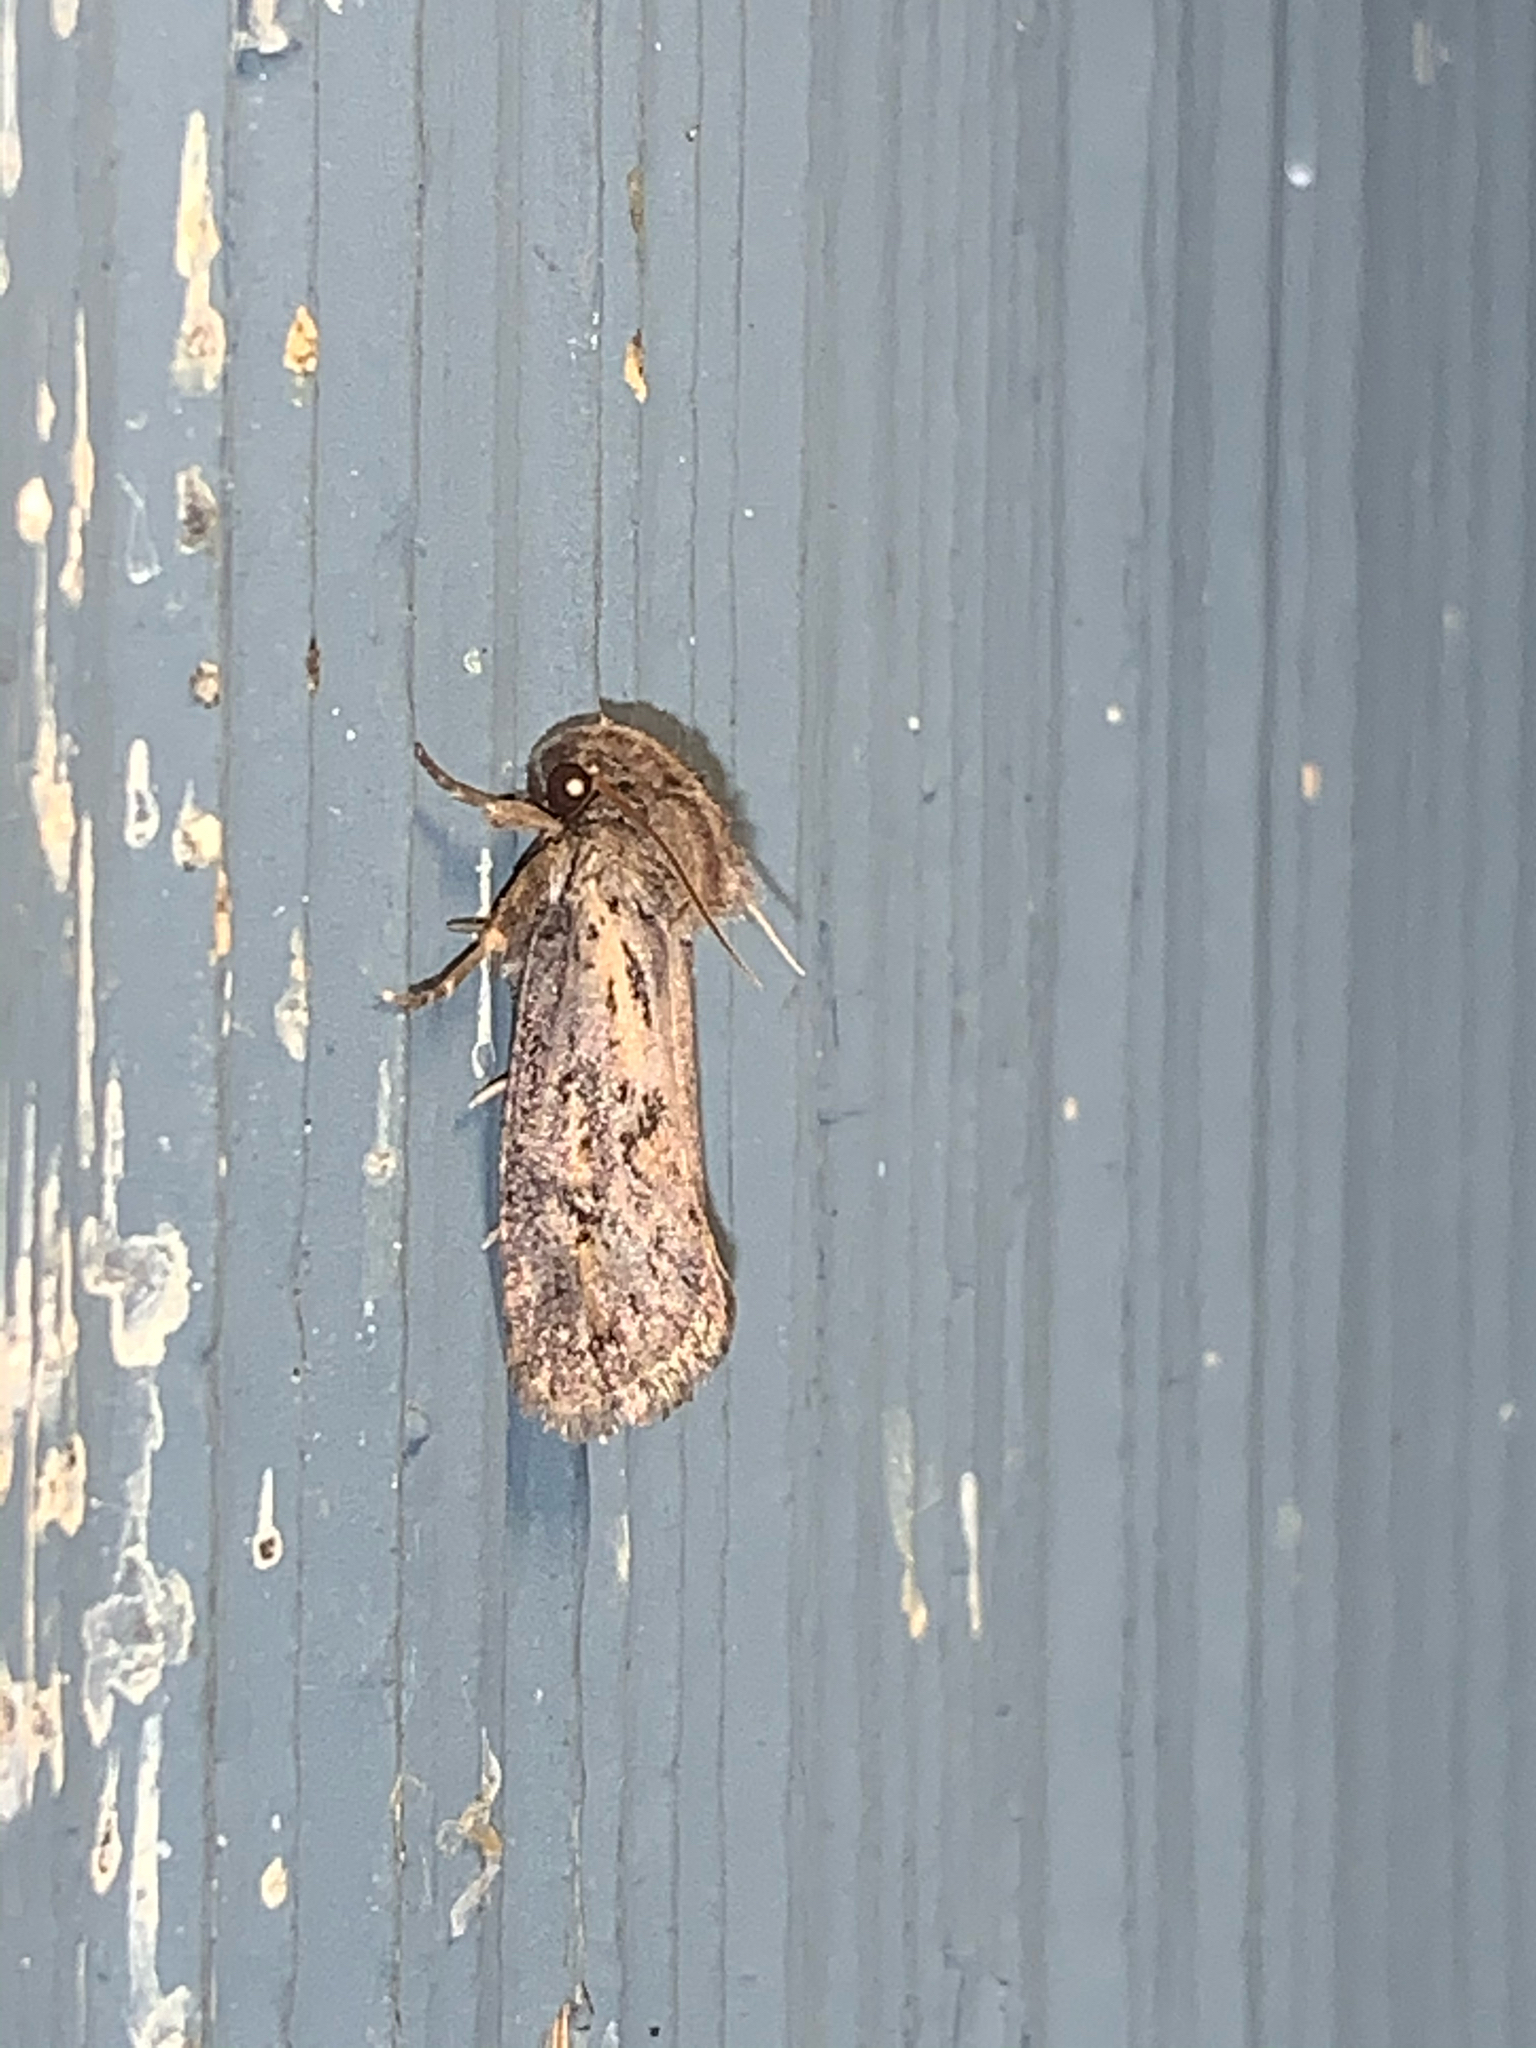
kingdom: Animalia
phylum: Arthropoda
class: Insecta
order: Lepidoptera
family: Tineidae
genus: Acrolophus
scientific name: Acrolophus popeanella
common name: Clemens' grass tubeworm moth
